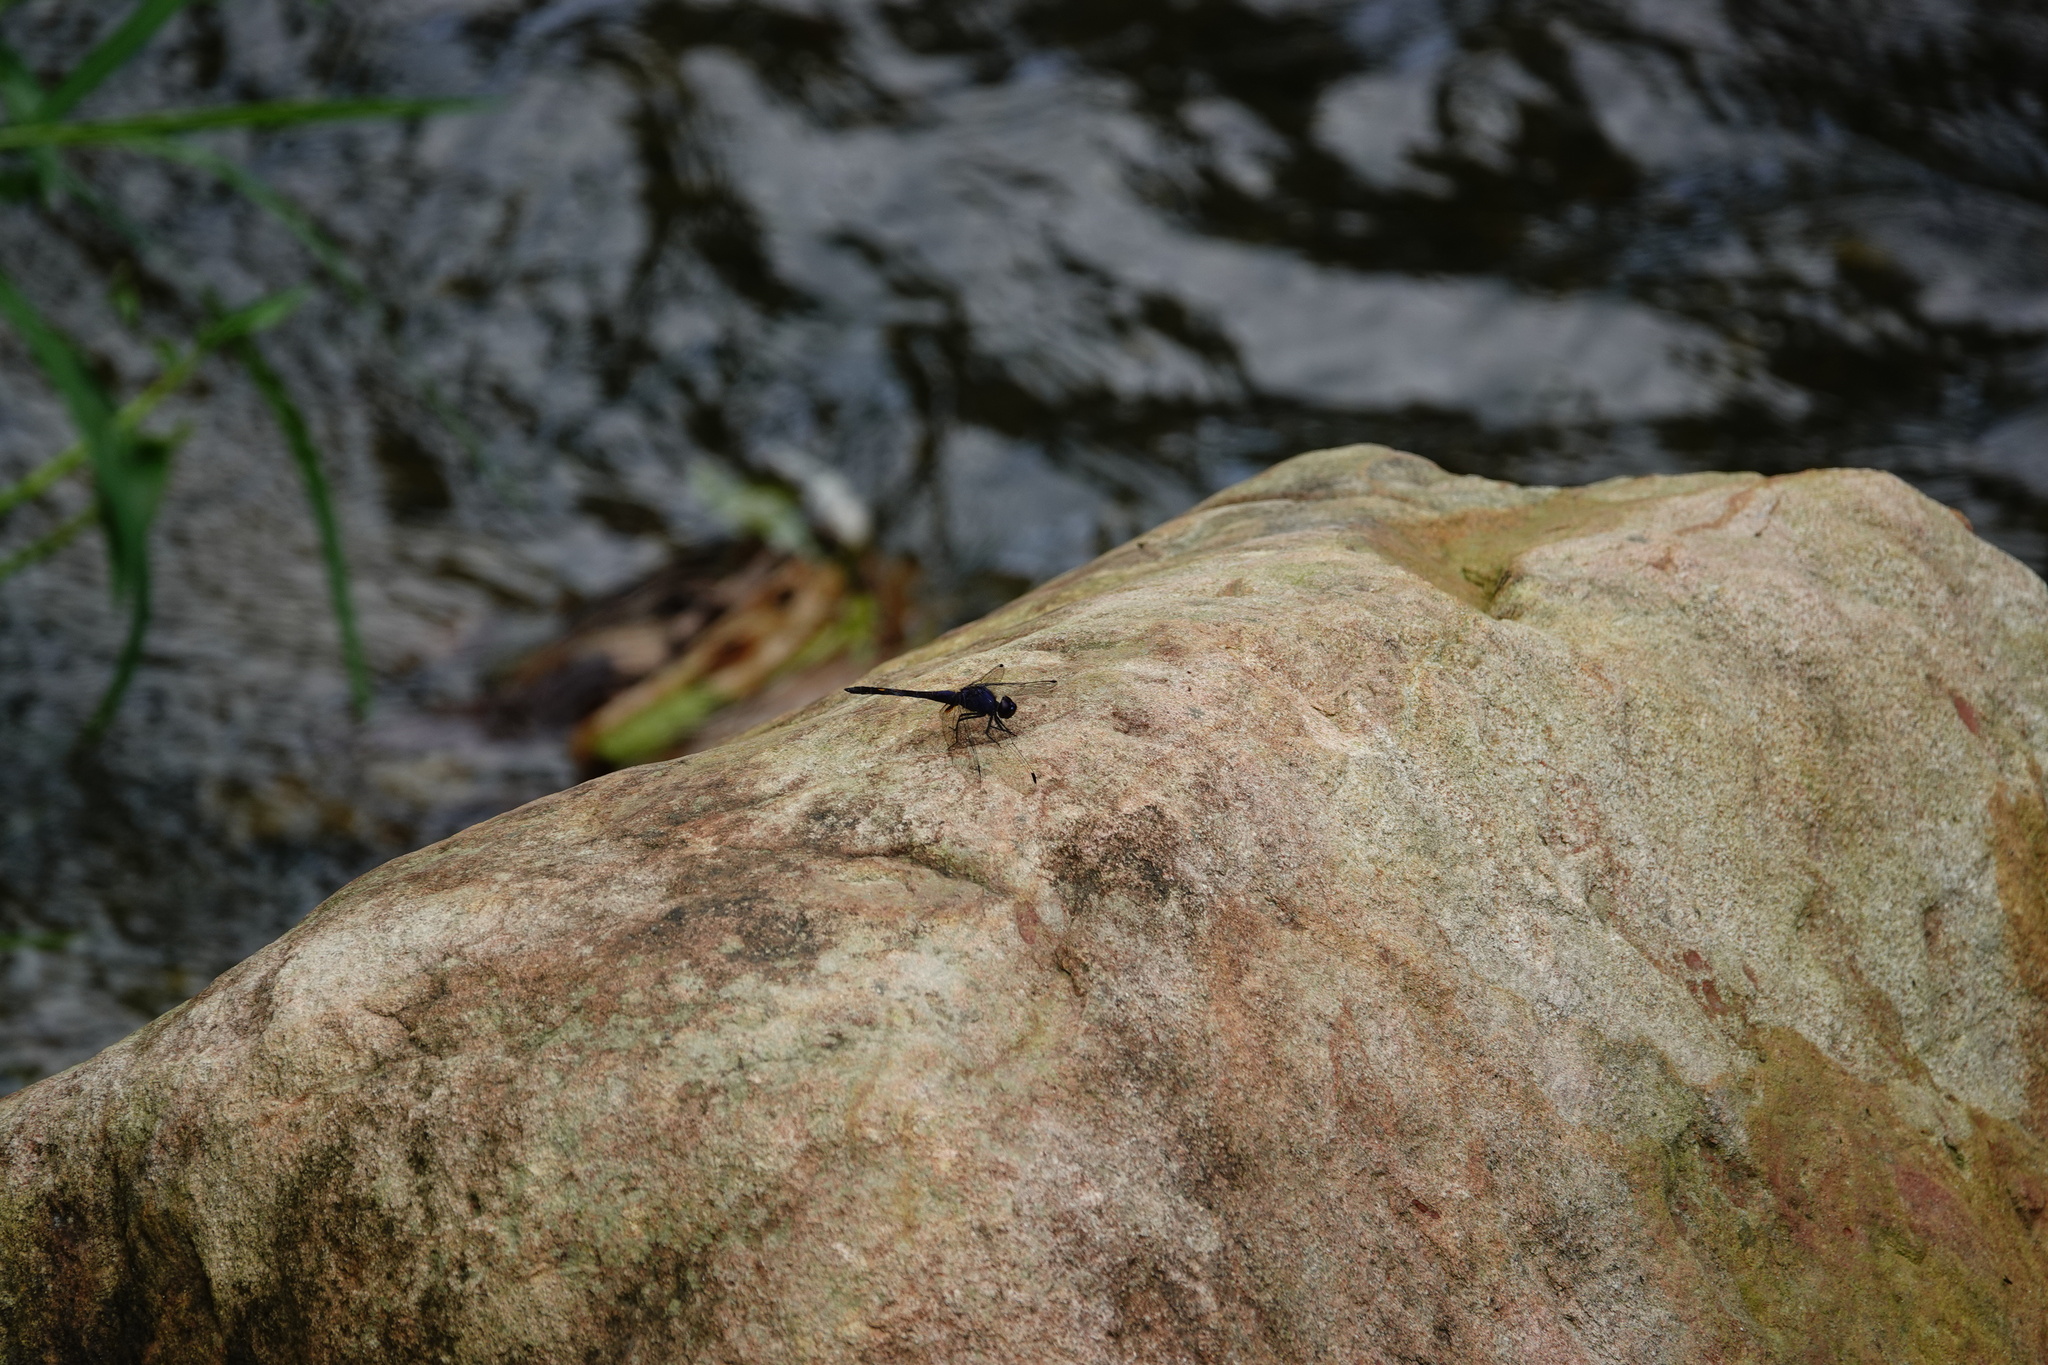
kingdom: Animalia
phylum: Arthropoda
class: Insecta
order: Odonata
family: Libellulidae
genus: Trithemis
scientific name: Trithemis festiva
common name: Indigo dropwing
